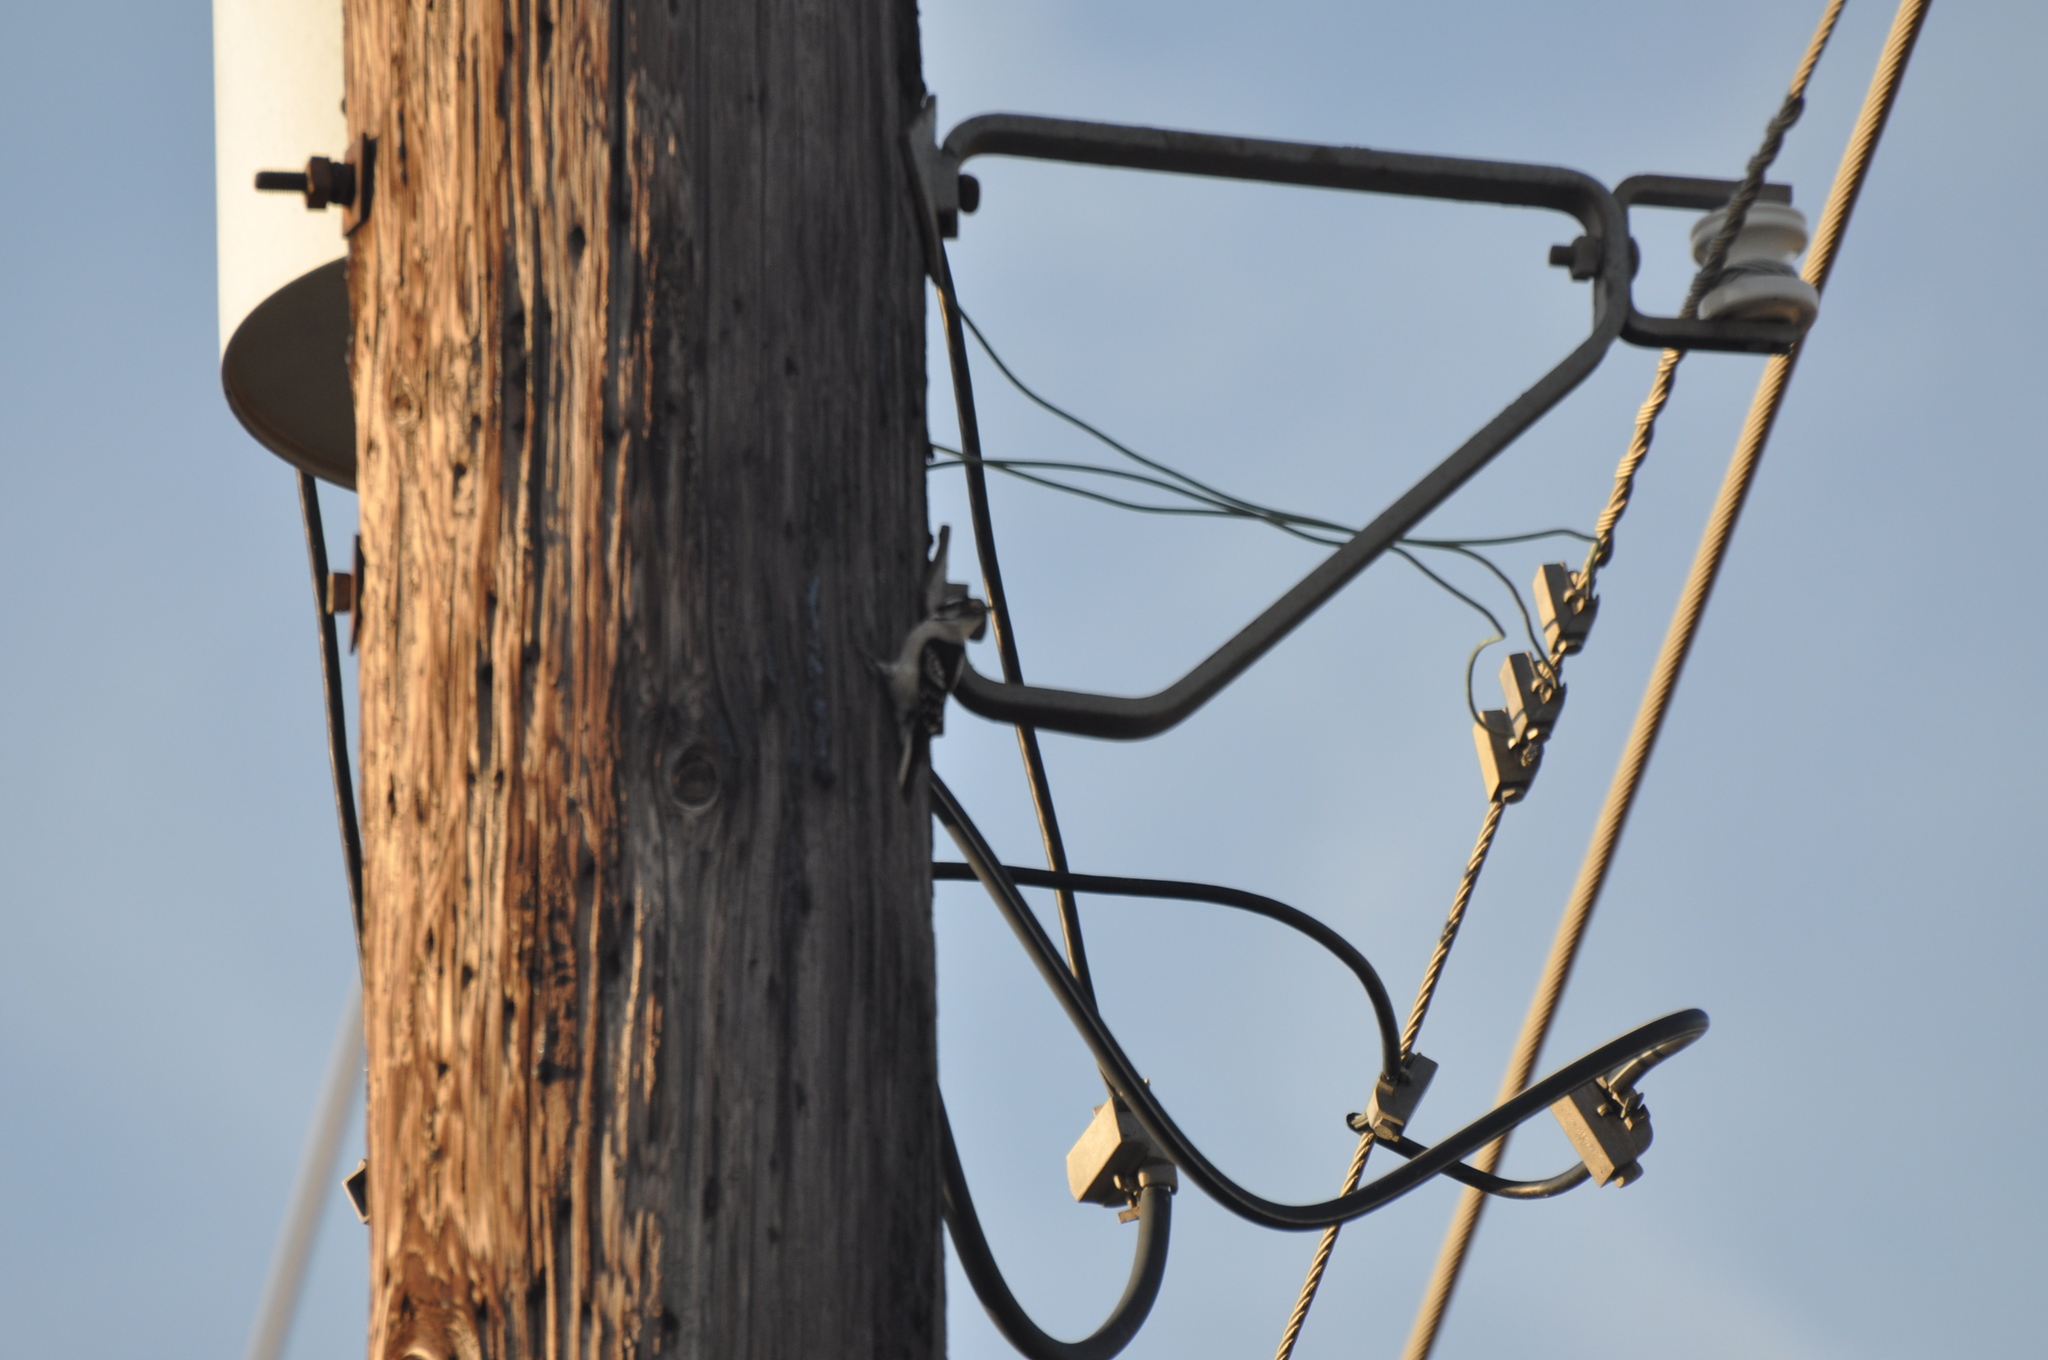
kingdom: Animalia
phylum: Chordata
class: Aves
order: Piciformes
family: Picidae
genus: Leuconotopicus
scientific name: Leuconotopicus villosus
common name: Hairy woodpecker
